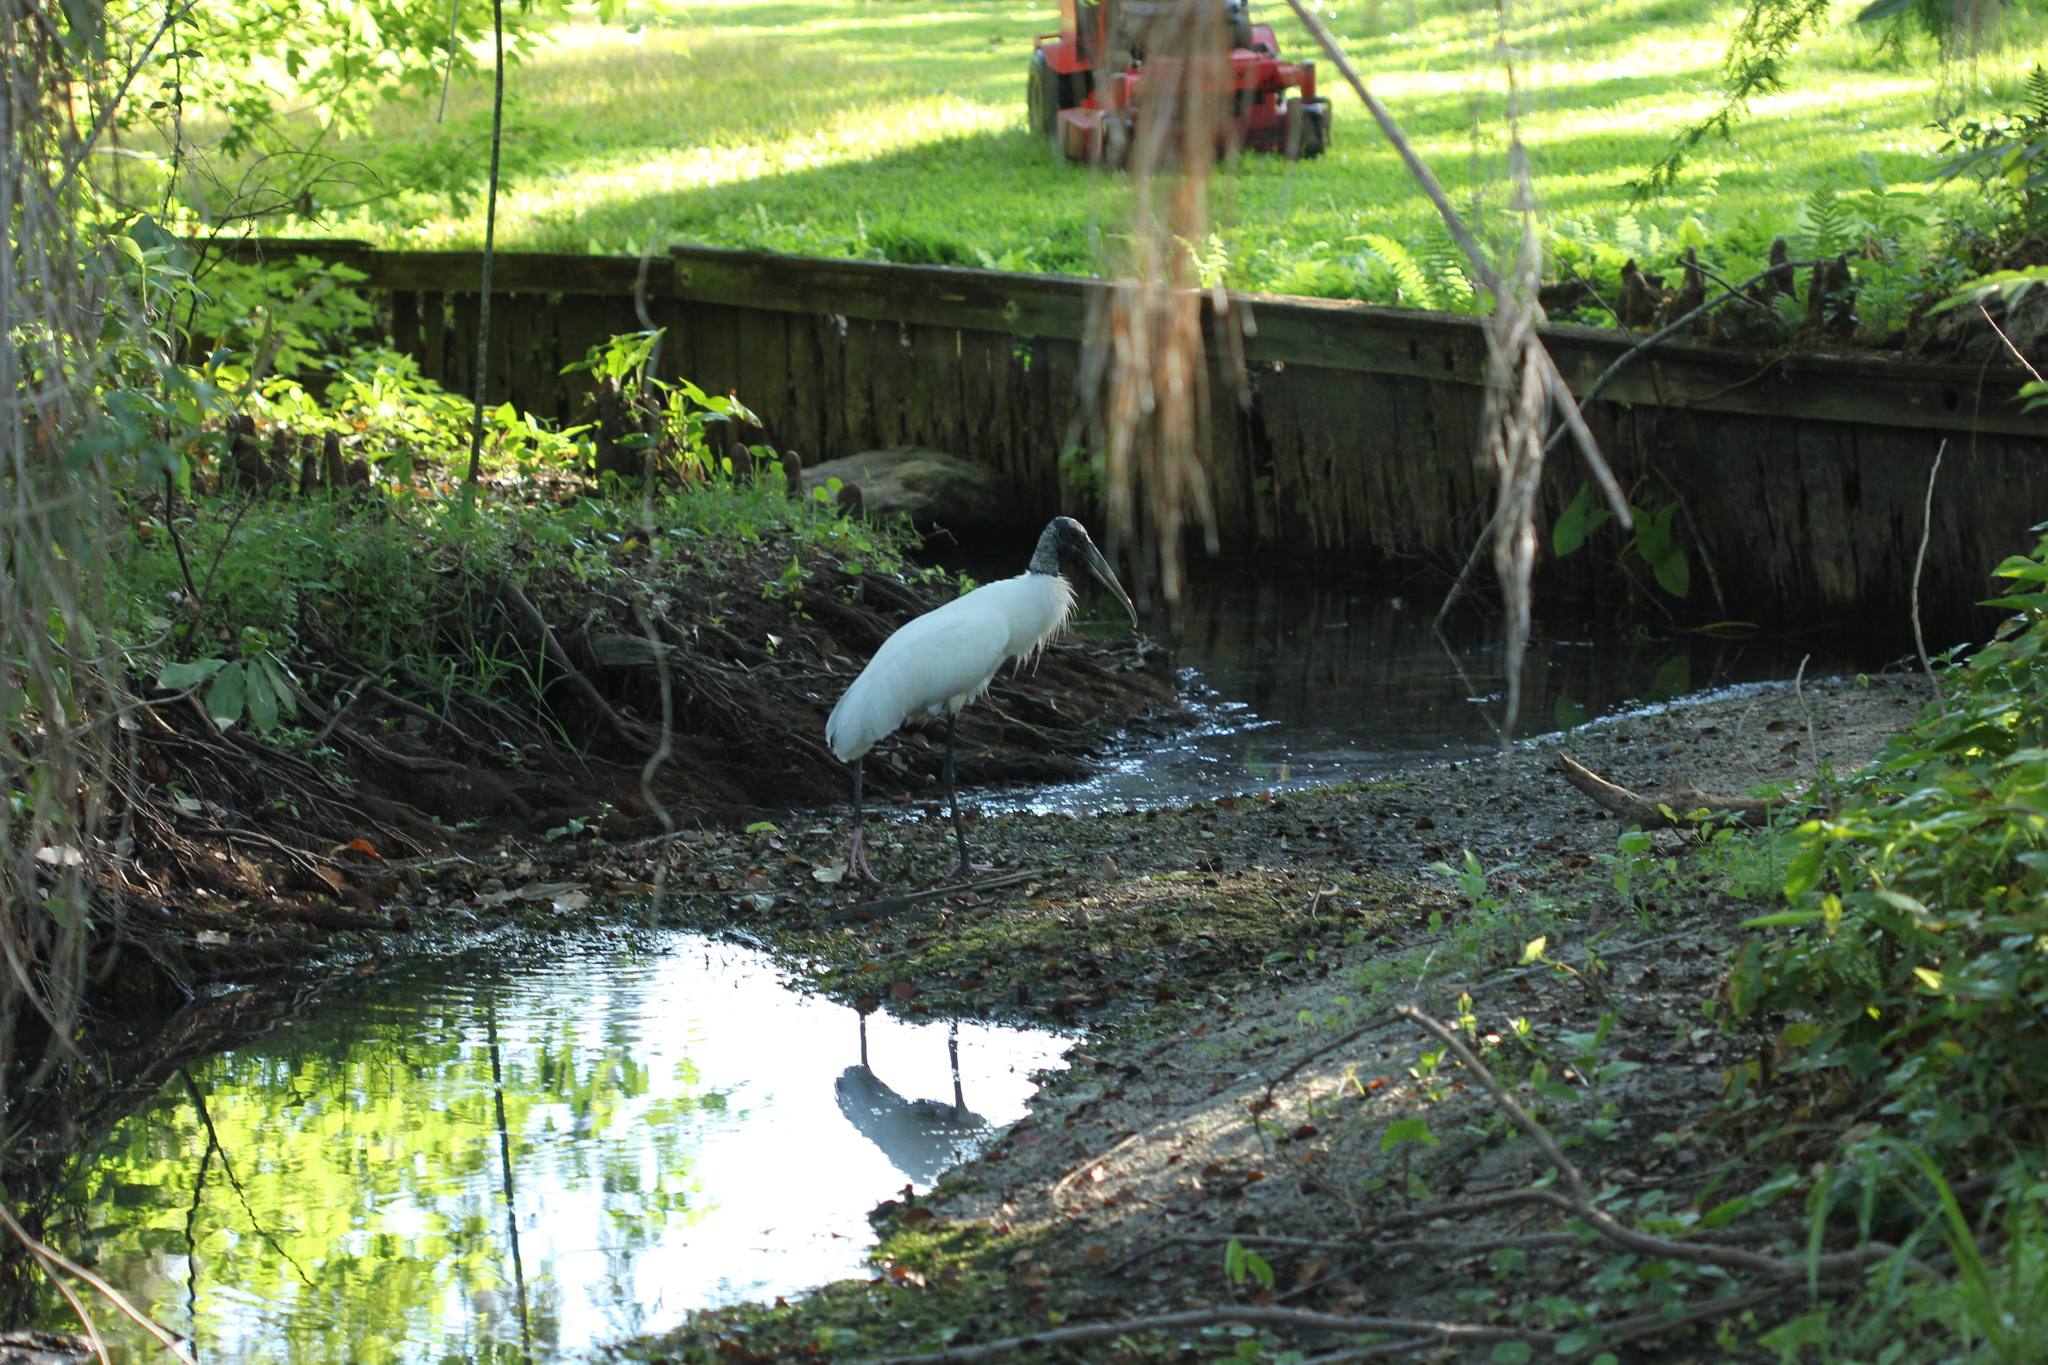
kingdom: Animalia
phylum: Chordata
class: Aves
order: Ciconiiformes
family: Ciconiidae
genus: Mycteria
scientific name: Mycteria americana
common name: Wood stork
